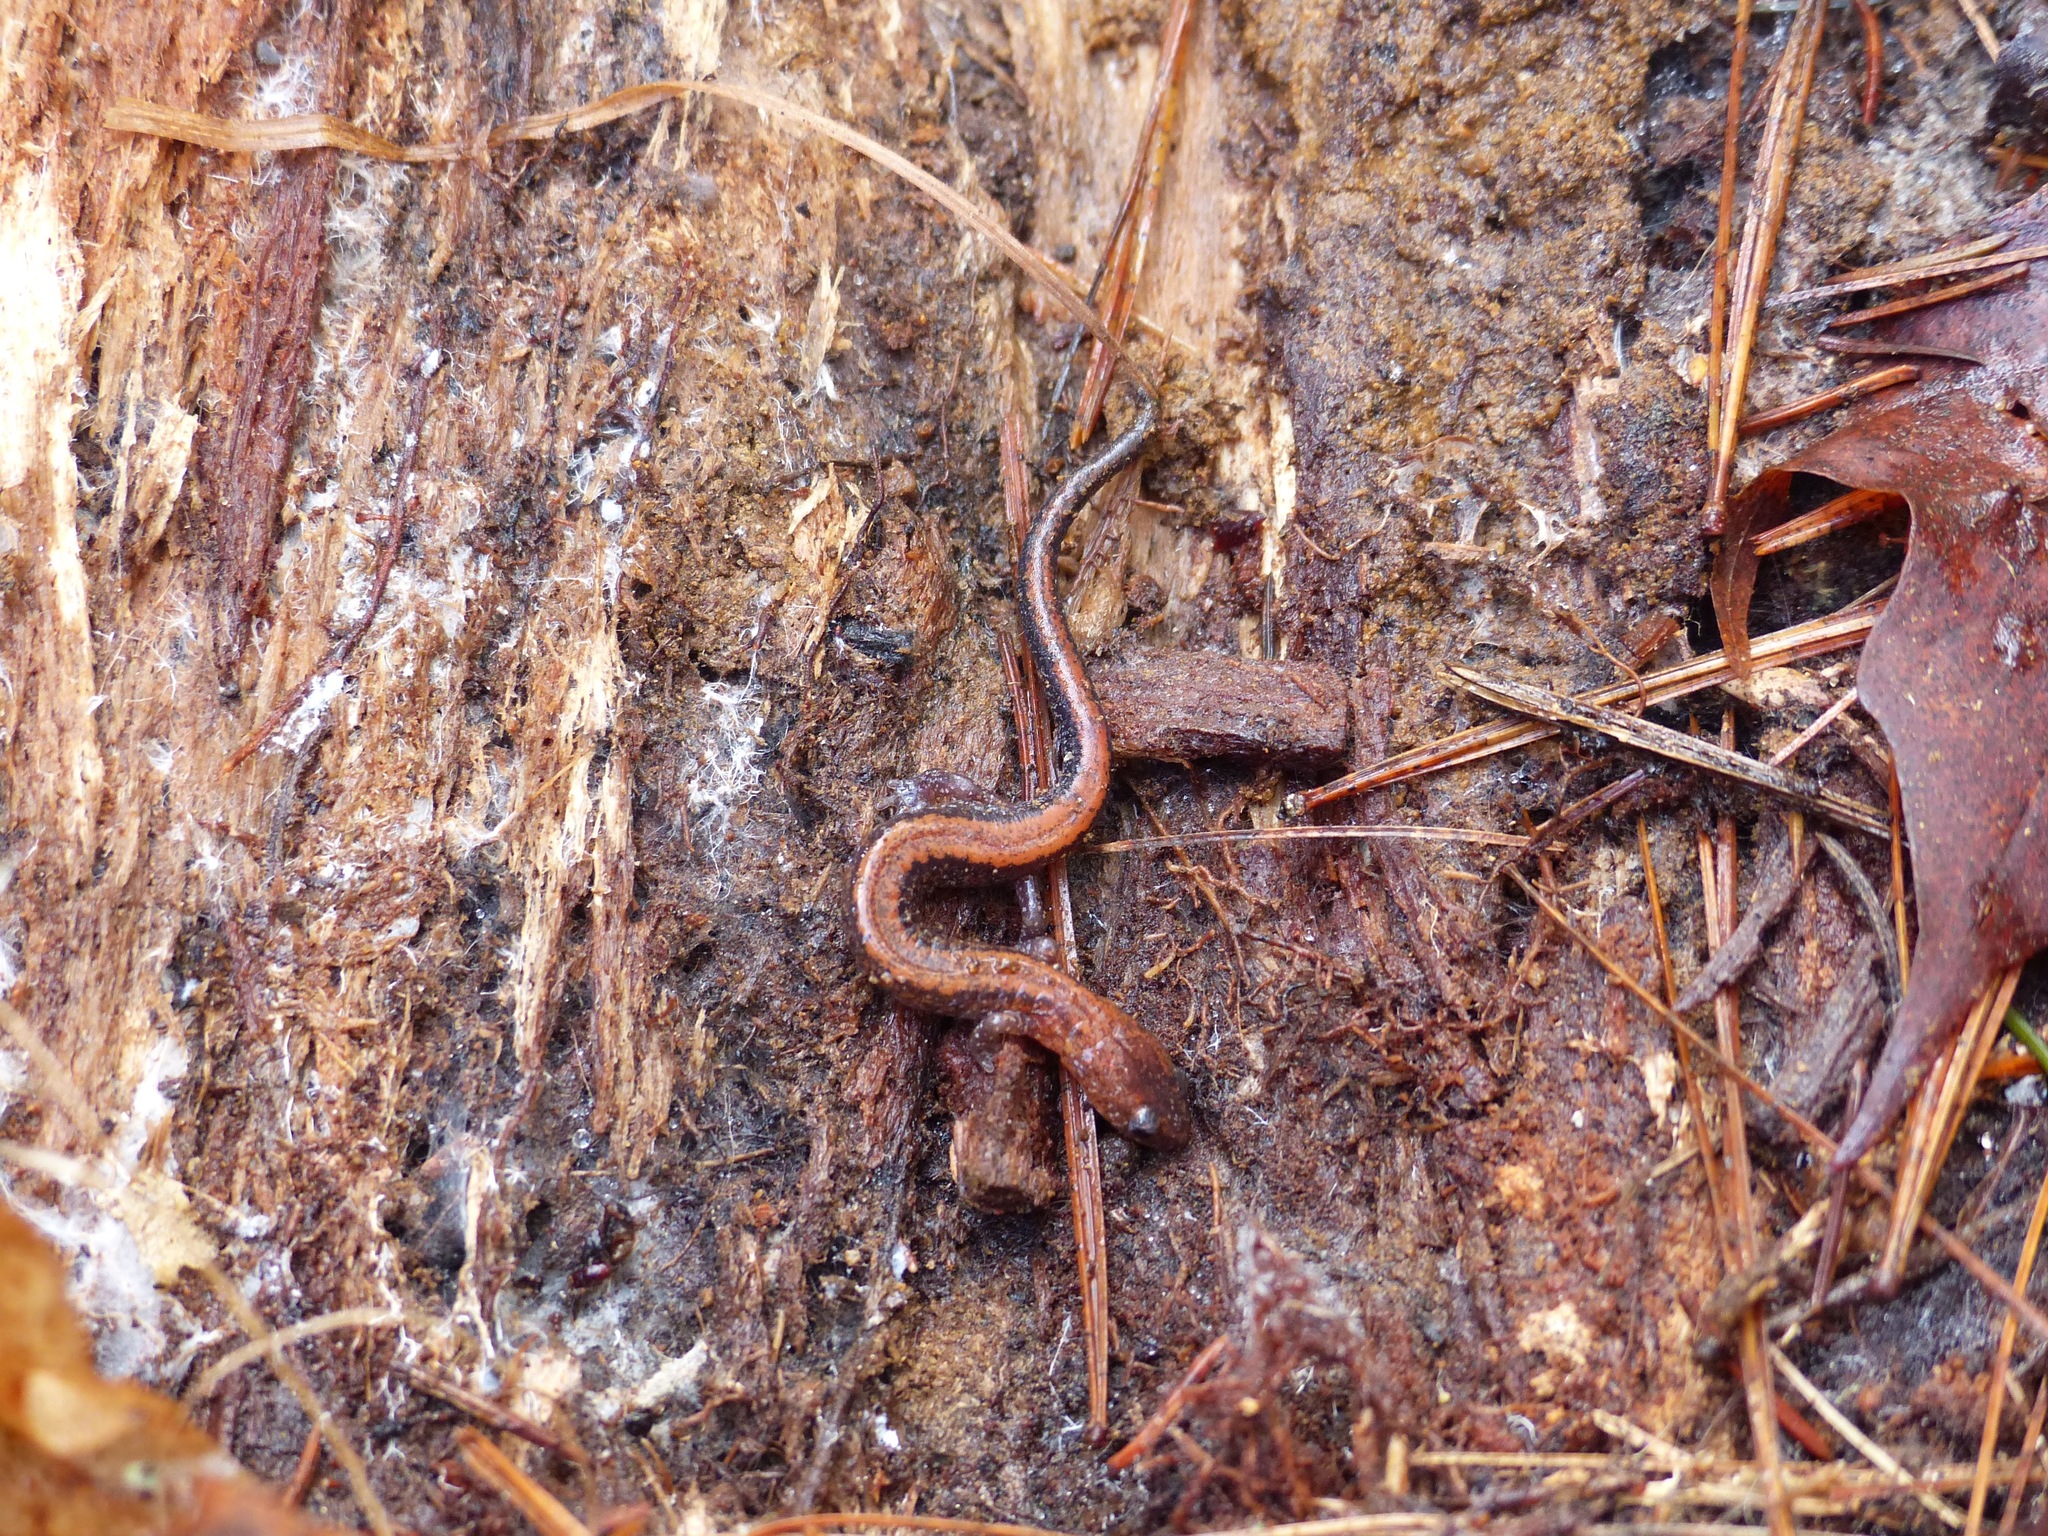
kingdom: Animalia
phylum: Chordata
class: Amphibia
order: Caudata
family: Plethodontidae
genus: Plethodon
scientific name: Plethodon cinereus
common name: Redback salamander
